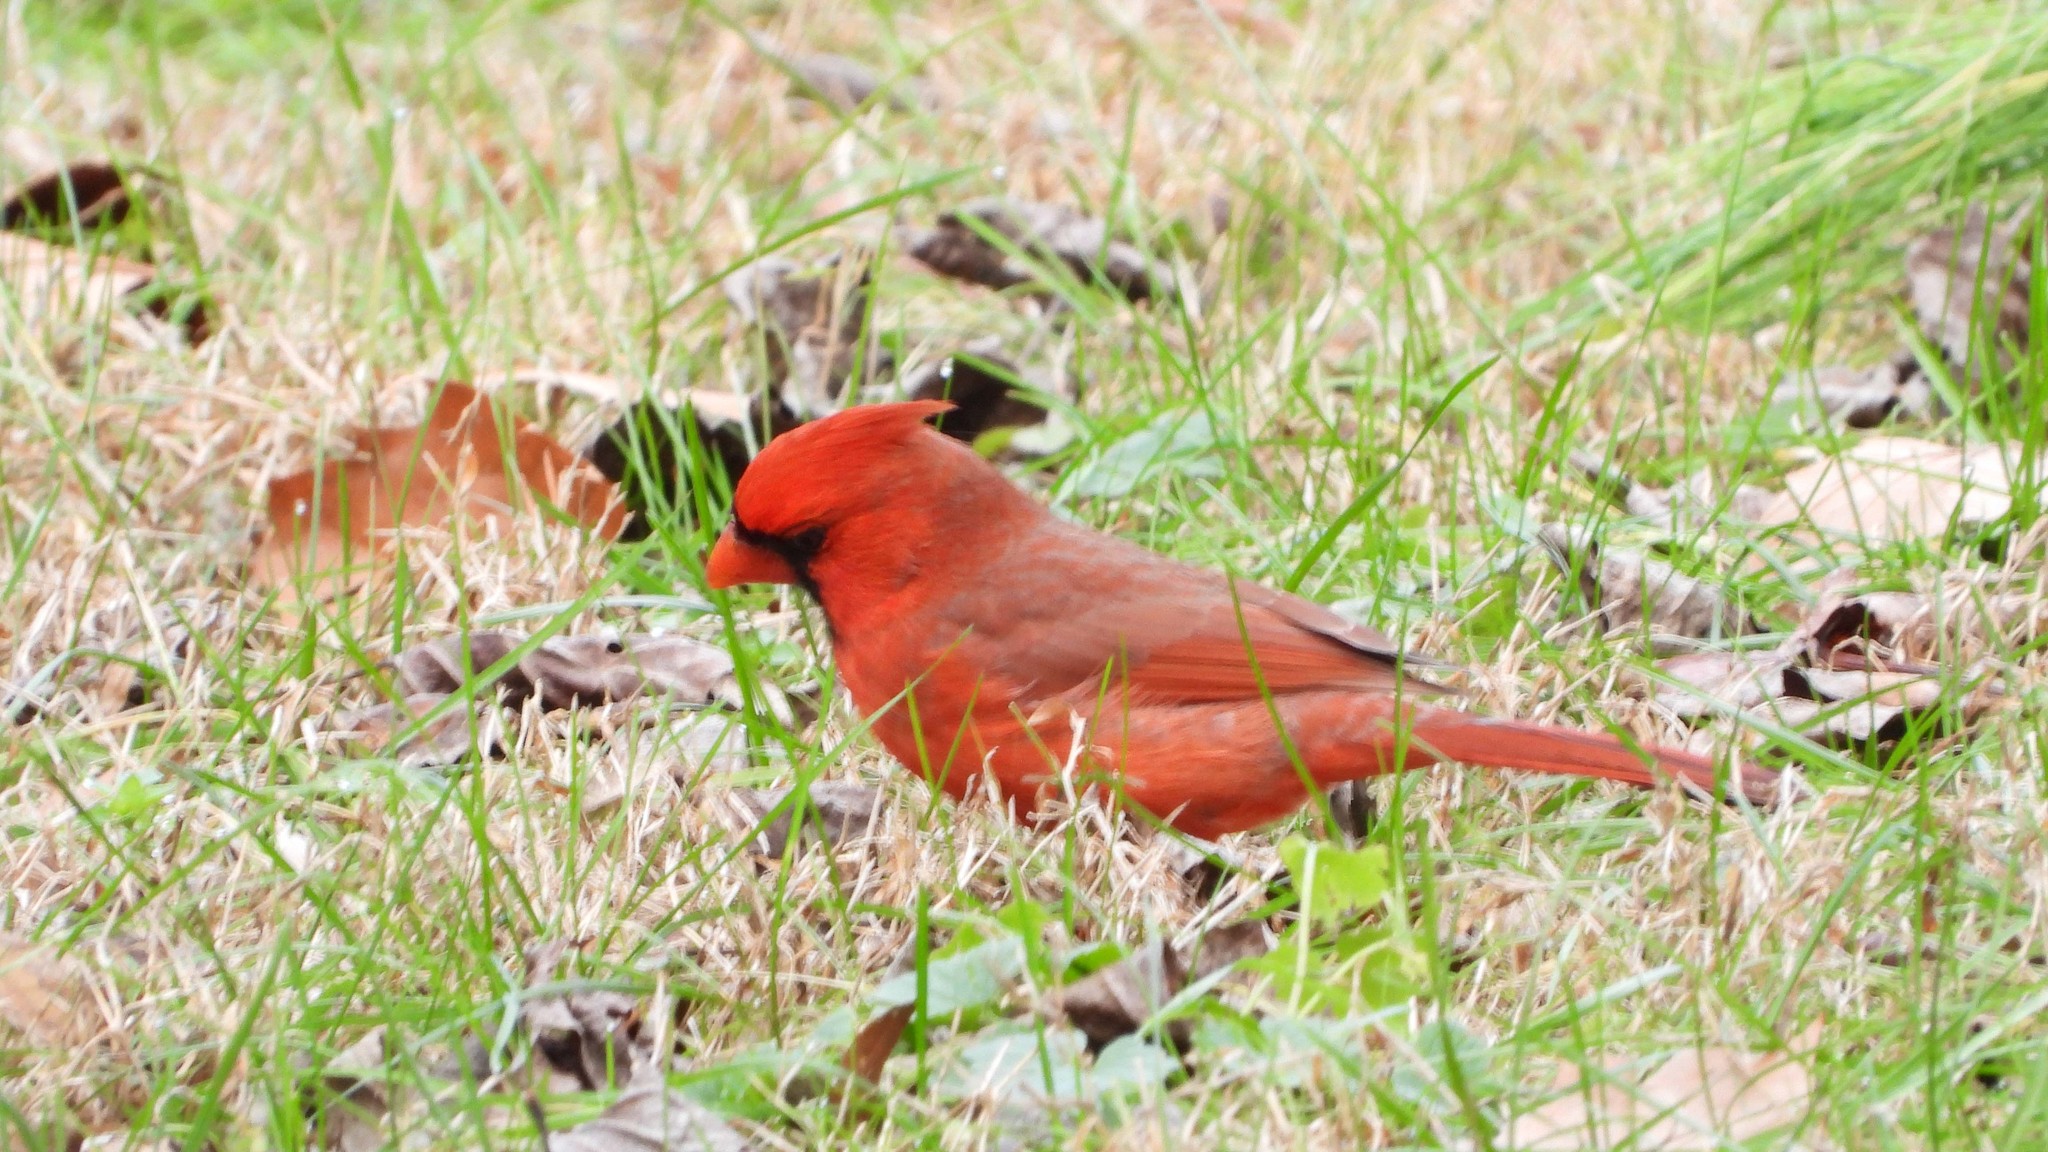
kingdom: Animalia
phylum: Chordata
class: Aves
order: Passeriformes
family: Cardinalidae
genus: Cardinalis
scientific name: Cardinalis cardinalis
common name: Northern cardinal
